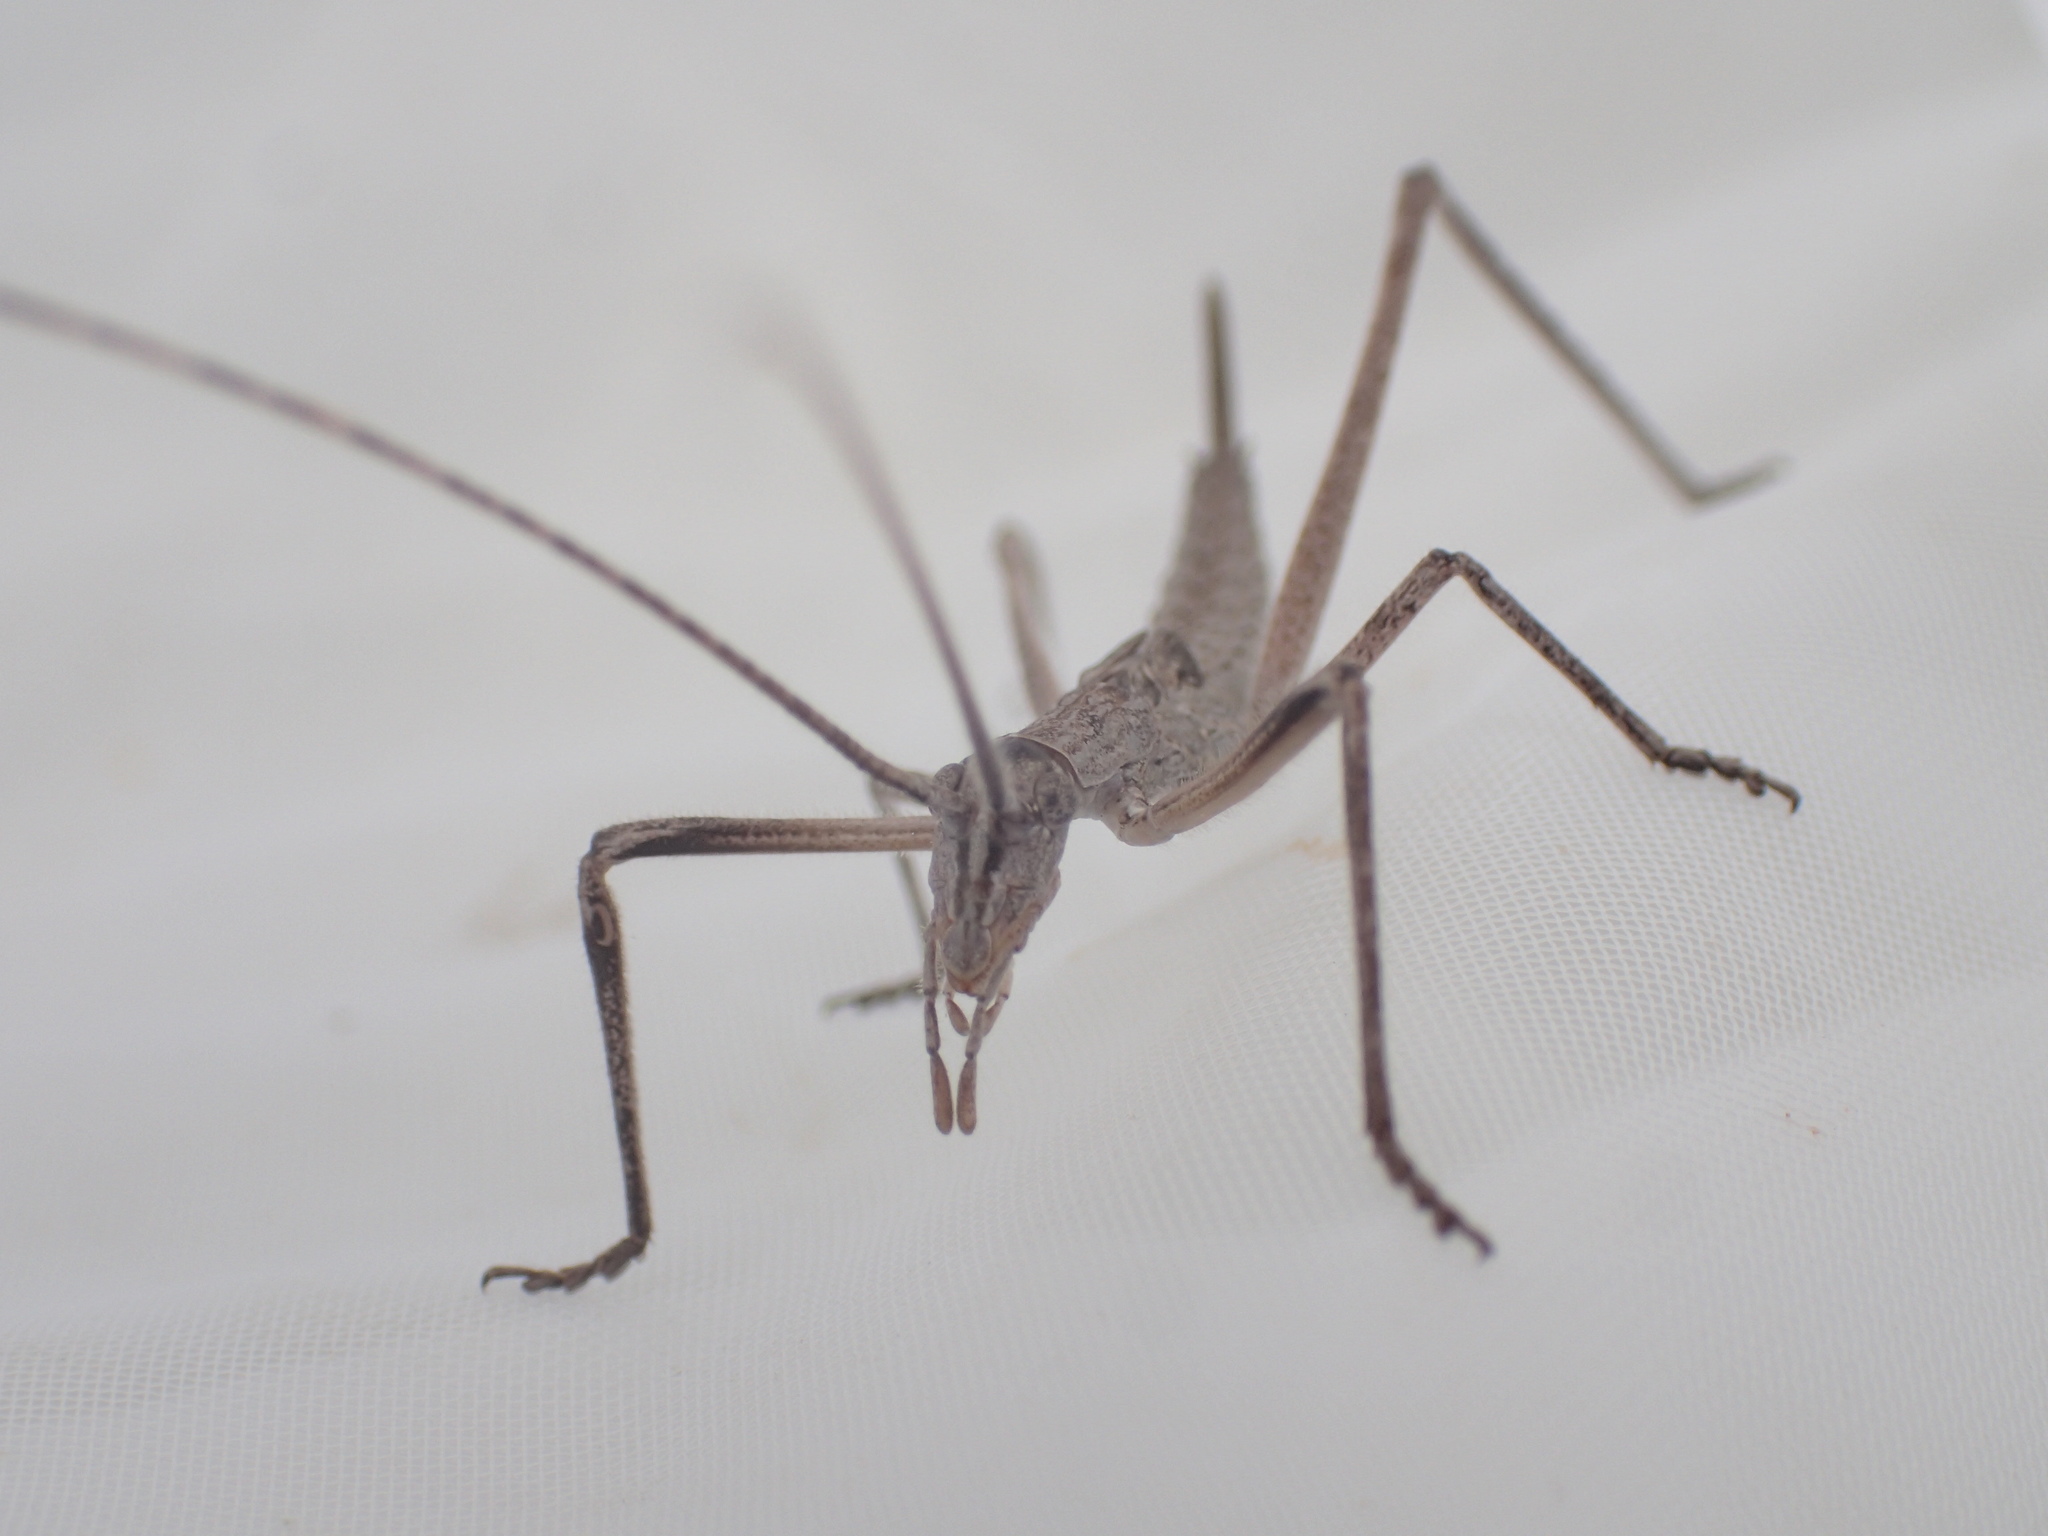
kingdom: Animalia
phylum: Arthropoda
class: Insecta
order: Orthoptera
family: Tettigoniidae
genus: Zaprochilus
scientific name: Zaprochilus australis
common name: Australian twig-mimicking katydid
